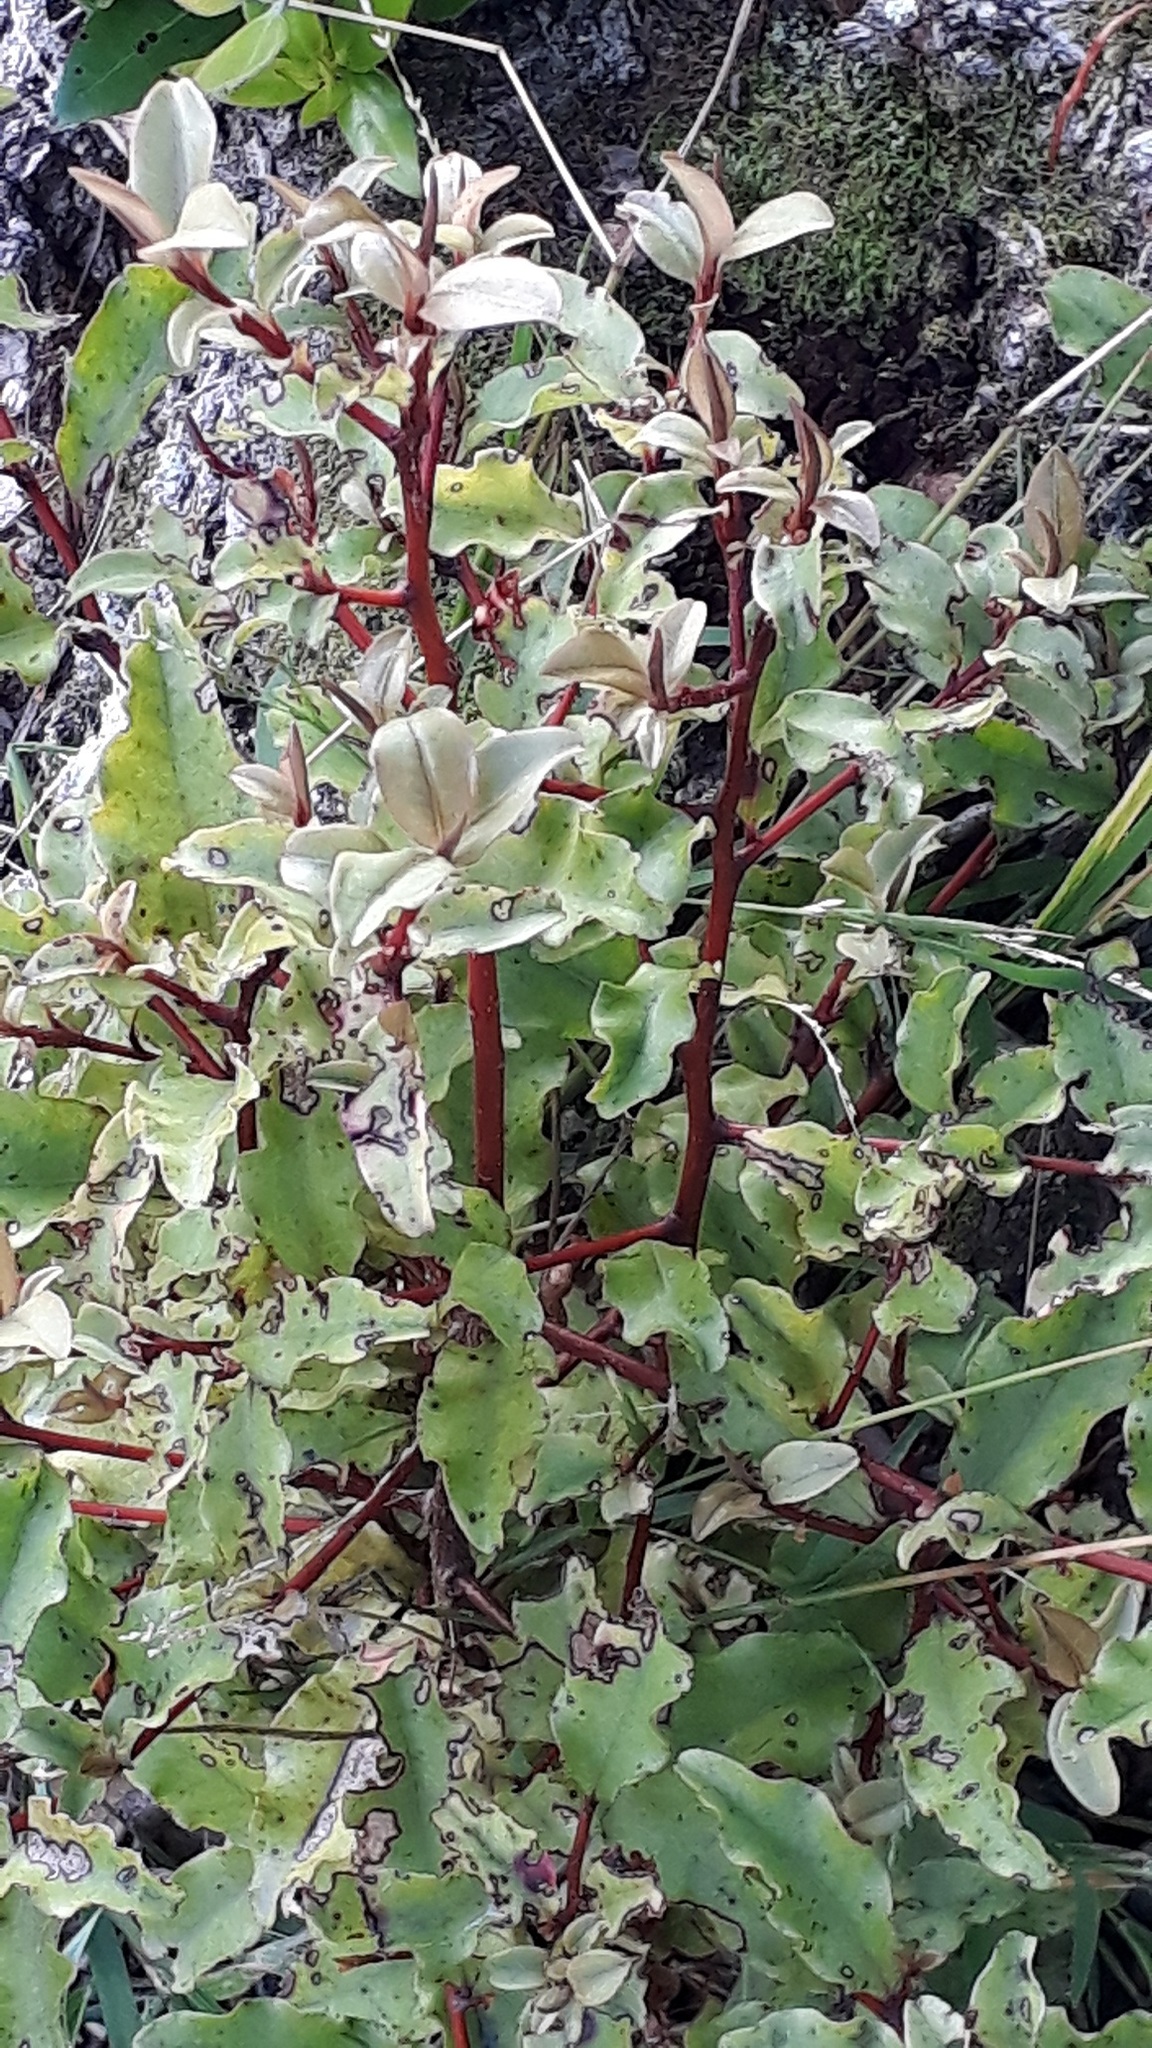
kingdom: Plantae
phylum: Tracheophyta
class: Magnoliopsida
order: Ericales
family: Primulaceae
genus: Myrsine
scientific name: Myrsine australis
